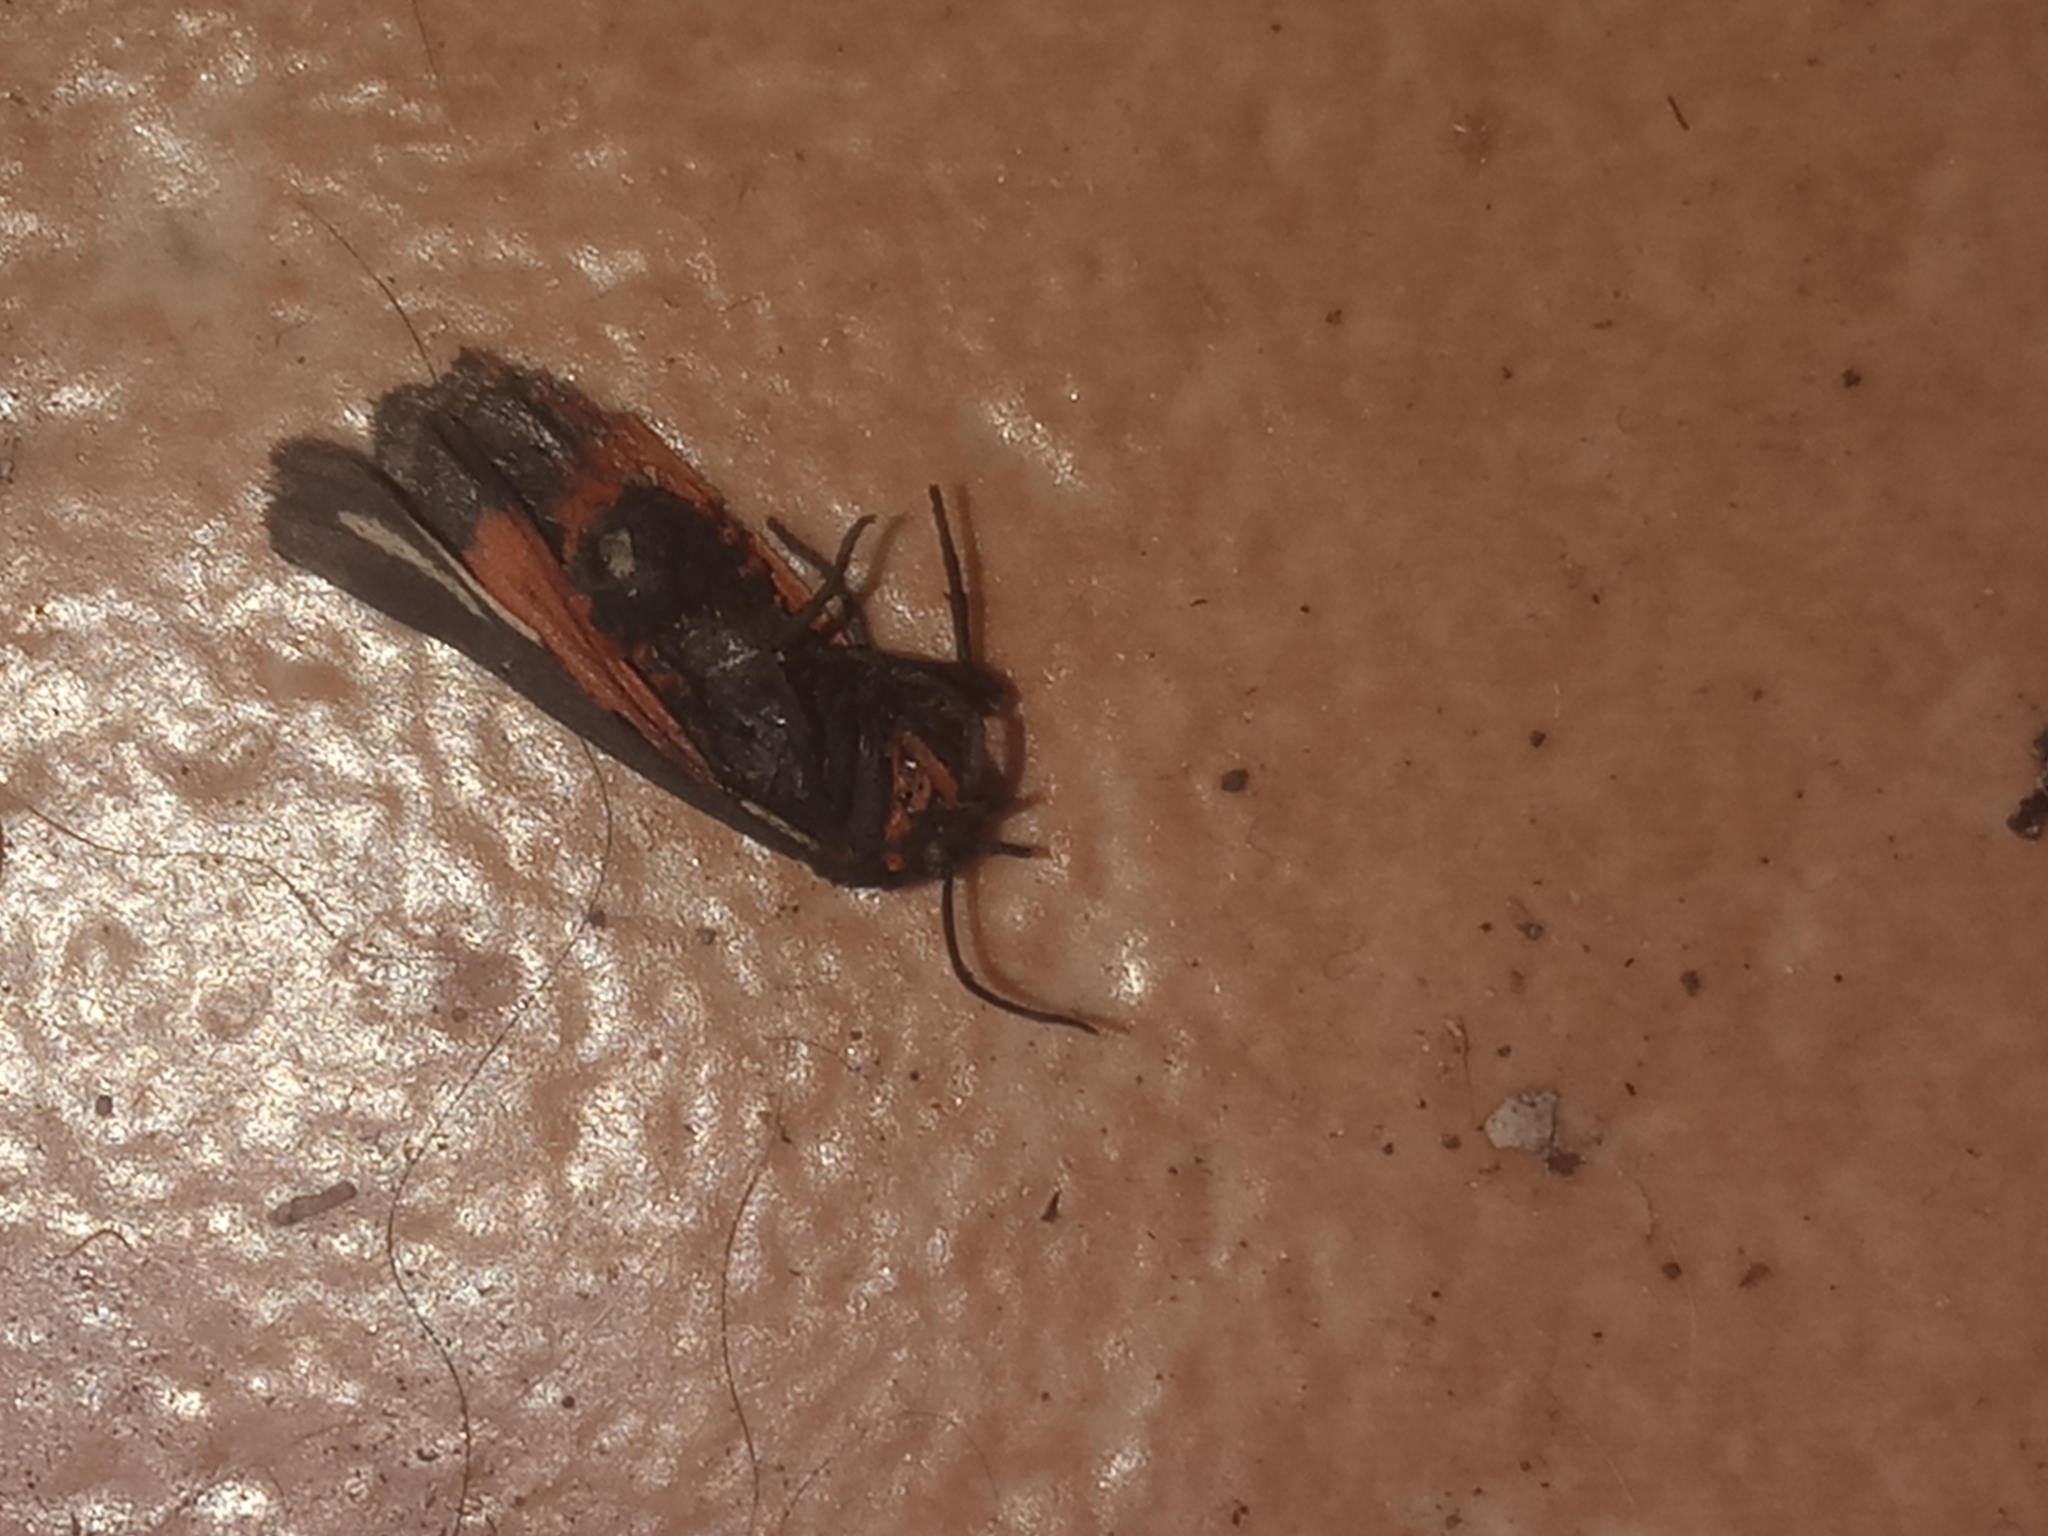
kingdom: Animalia
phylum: Arthropoda
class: Insecta
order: Lepidoptera
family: Erebidae
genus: Virbia
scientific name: Virbia polyphron
